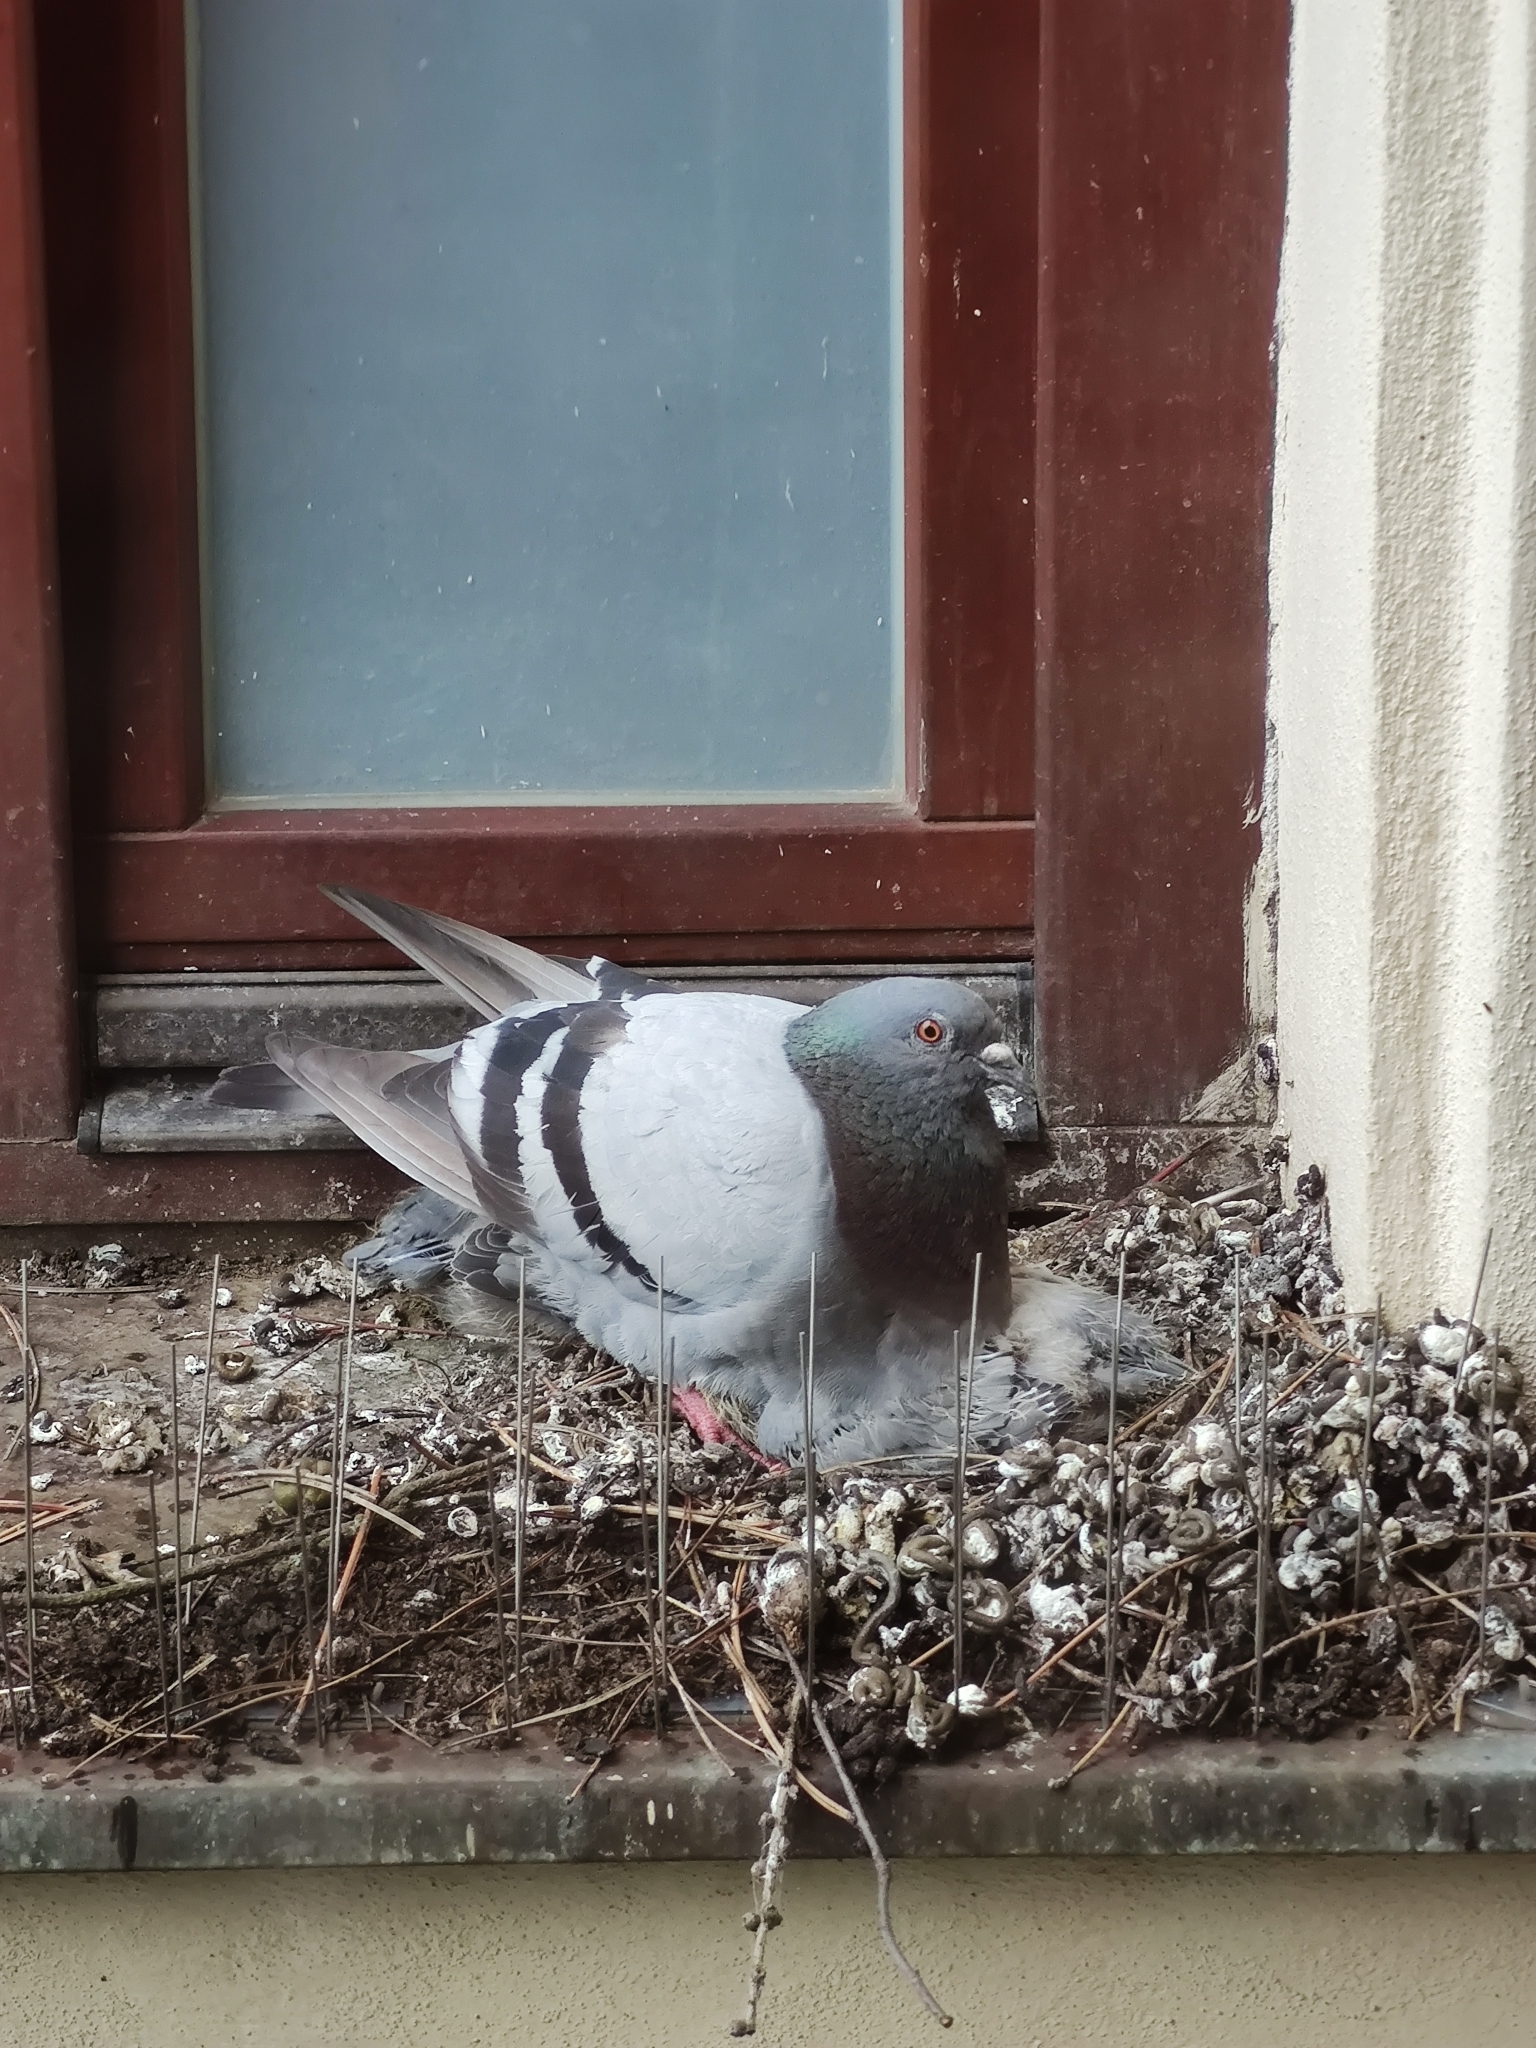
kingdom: Animalia
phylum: Chordata
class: Aves
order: Columbiformes
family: Columbidae
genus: Columba
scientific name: Columba livia
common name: Rock pigeon
